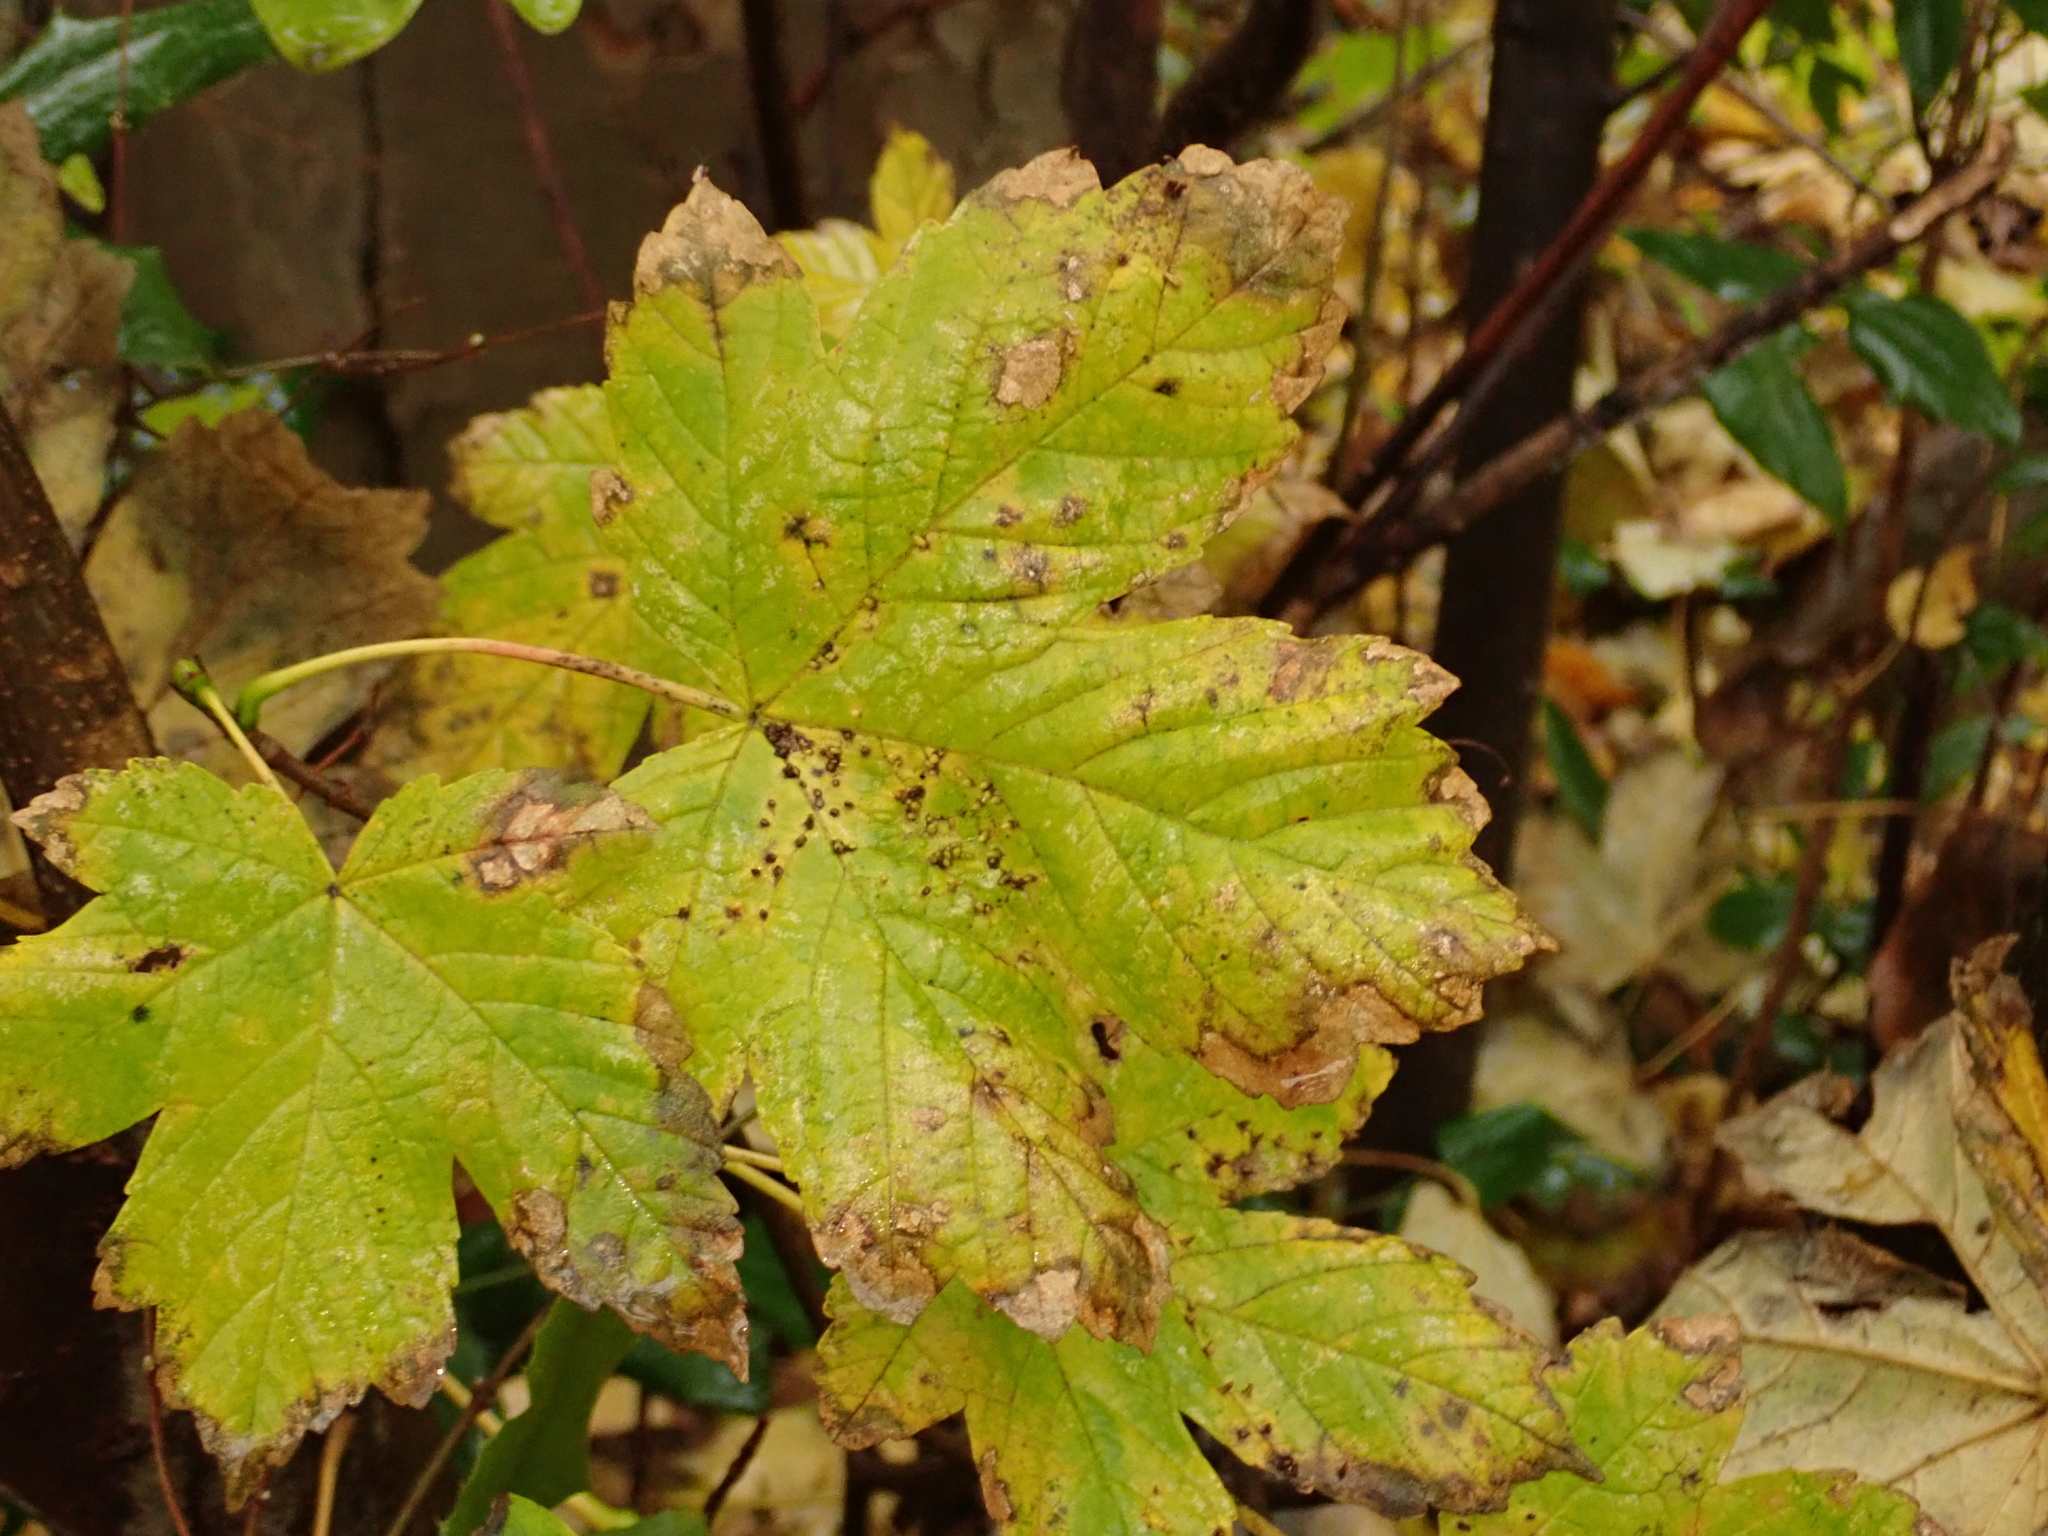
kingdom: Plantae
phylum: Tracheophyta
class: Magnoliopsida
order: Sapindales
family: Sapindaceae
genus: Acer
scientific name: Acer pseudoplatanus
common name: Sycamore
